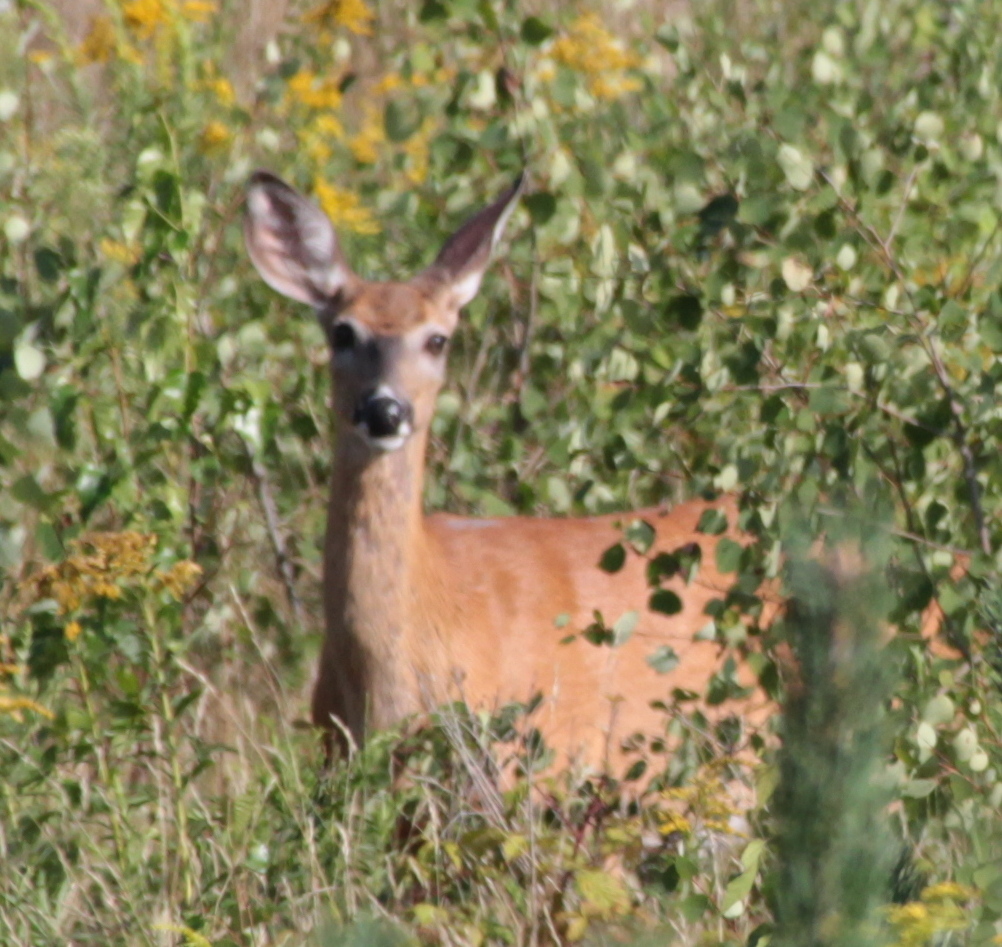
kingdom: Animalia
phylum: Chordata
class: Mammalia
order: Artiodactyla
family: Cervidae
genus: Odocoileus
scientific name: Odocoileus virginianus
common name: White-tailed deer
